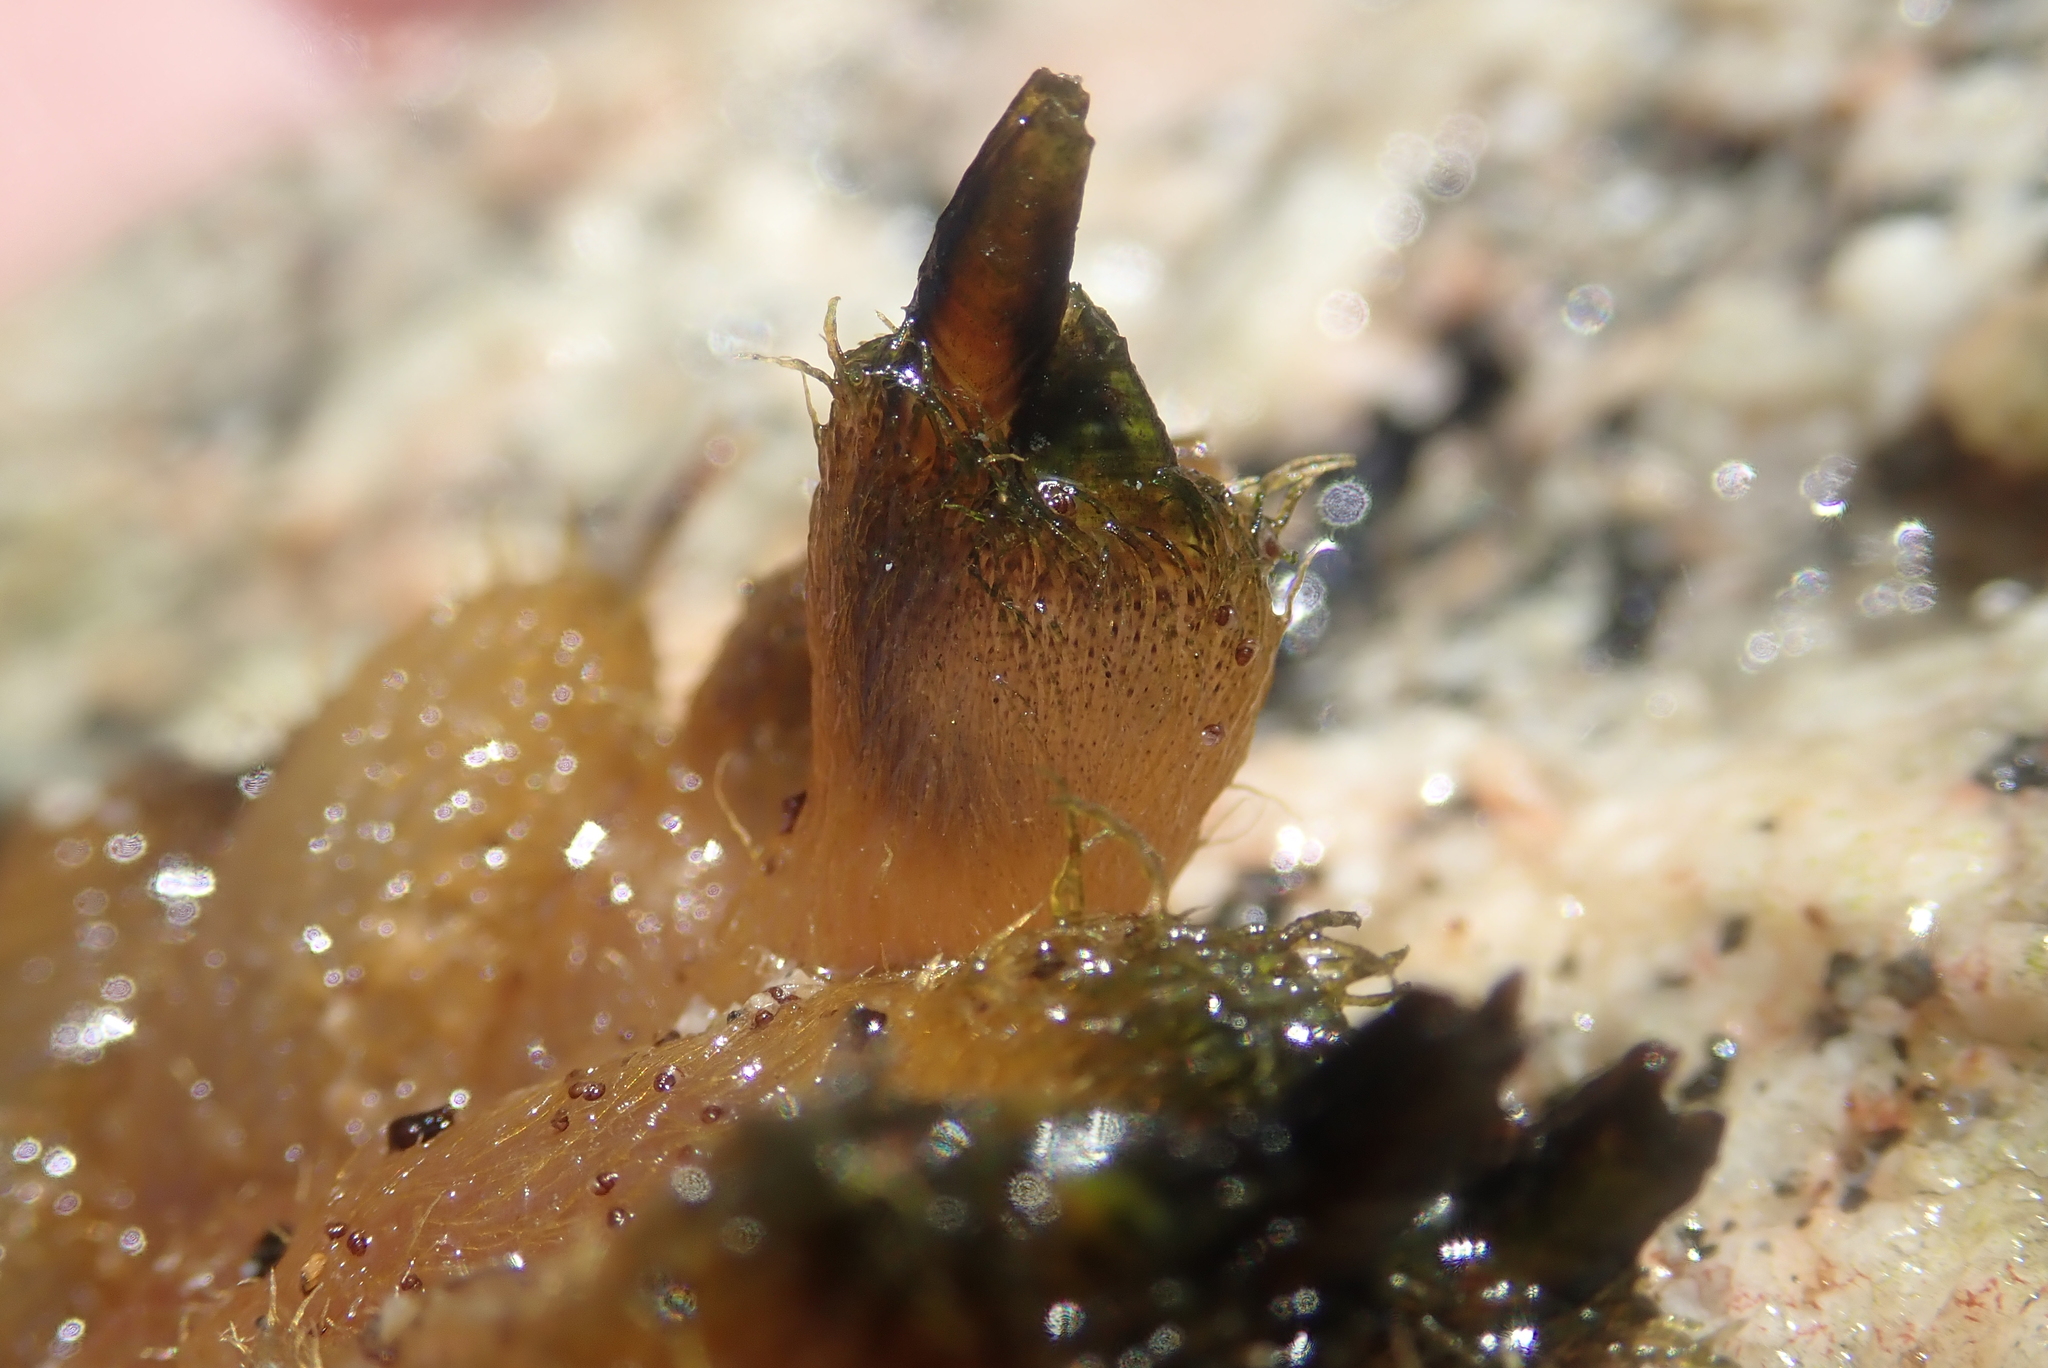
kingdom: Animalia
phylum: Arthropoda
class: Maxillopoda
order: Pedunculata
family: Iblidae
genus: Ibla
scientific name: Ibla cumingi
